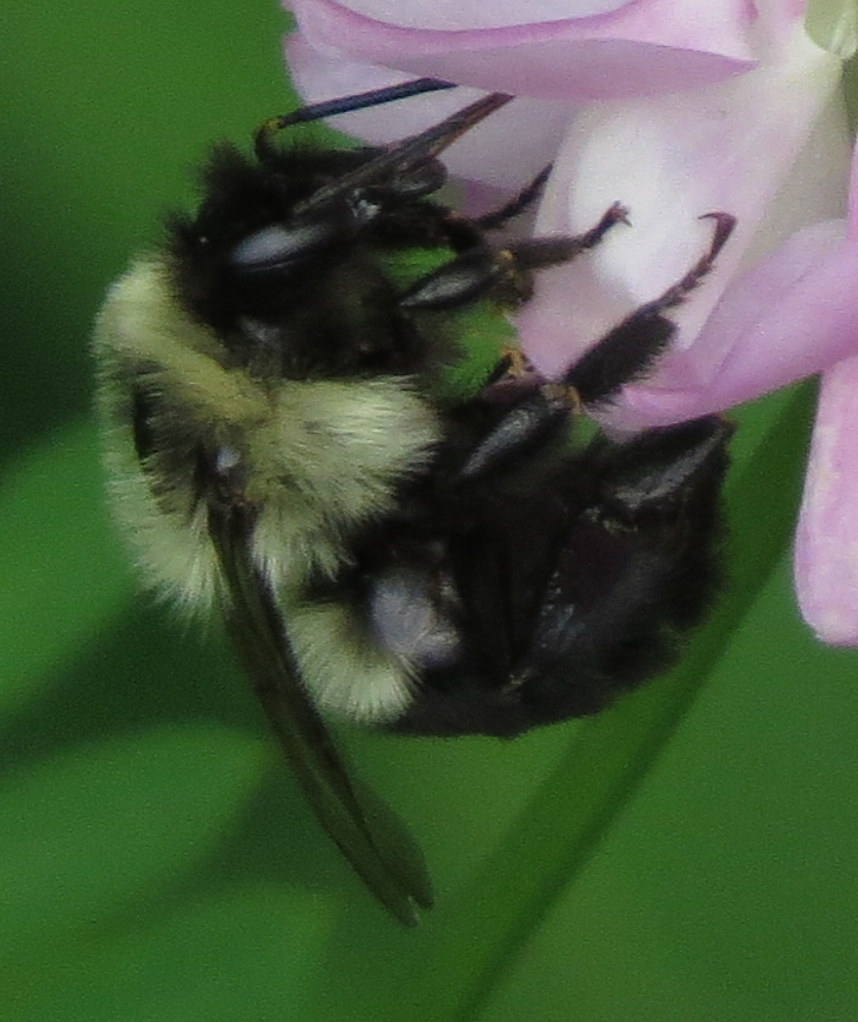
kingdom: Animalia
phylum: Arthropoda
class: Insecta
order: Hymenoptera
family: Apidae
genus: Bombus
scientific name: Bombus impatiens
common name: Common eastern bumble bee
